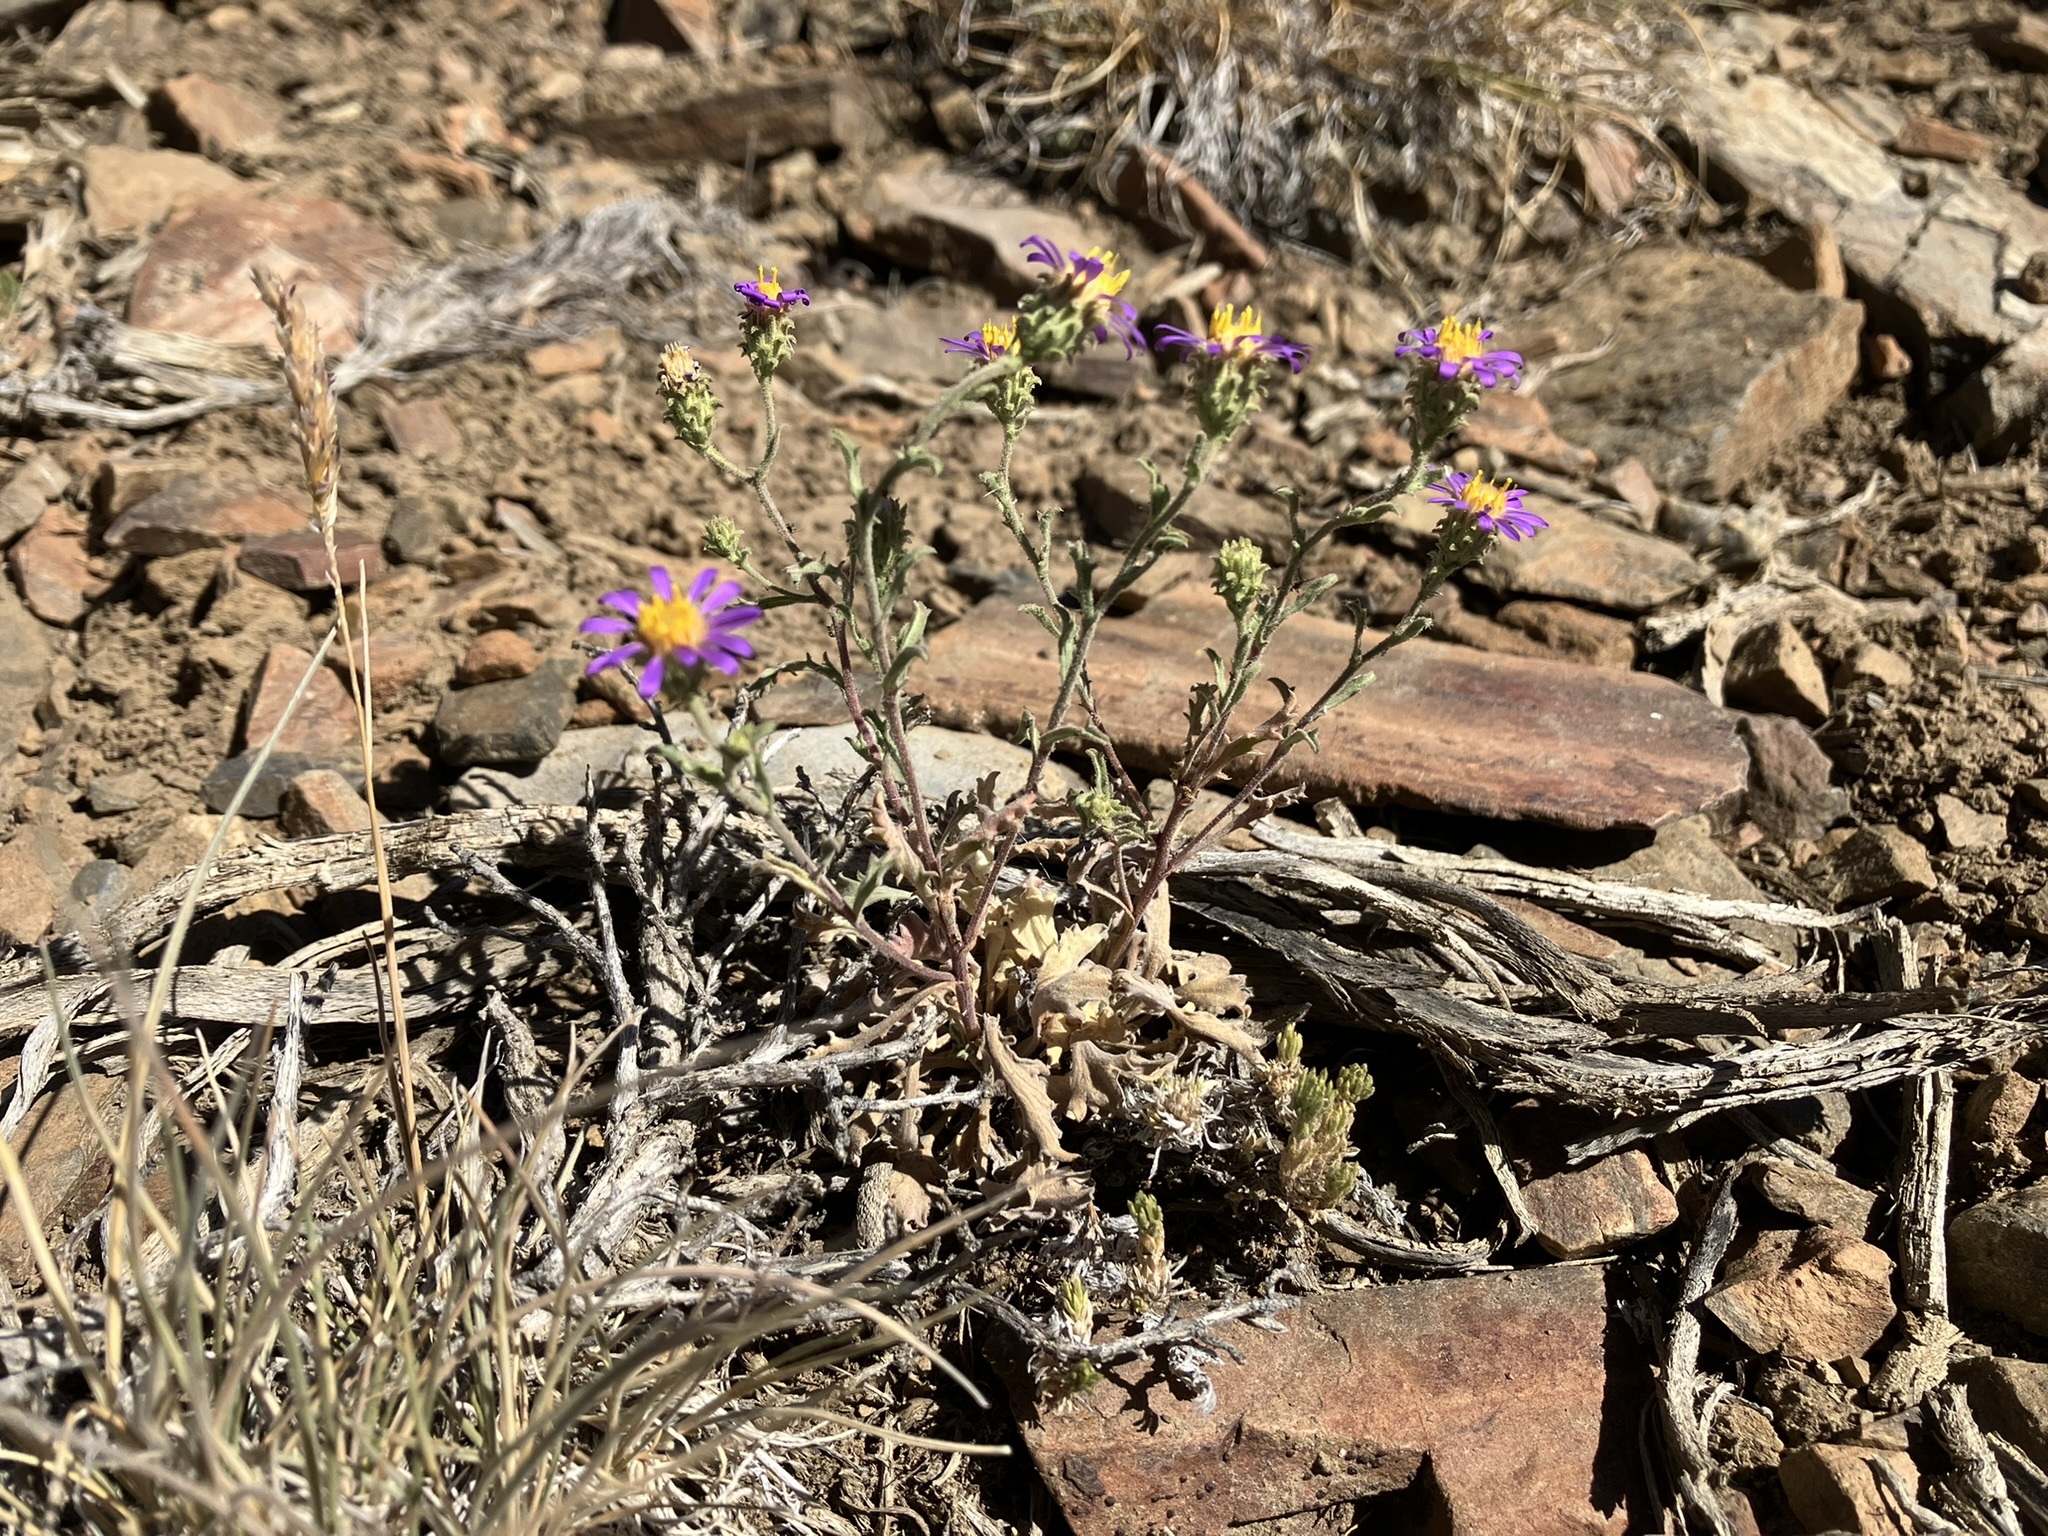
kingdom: Plantae
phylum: Tracheophyta
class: Magnoliopsida
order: Asterales
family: Asteraceae
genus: Dieteria
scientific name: Dieteria canescens
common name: Hoary-aster
